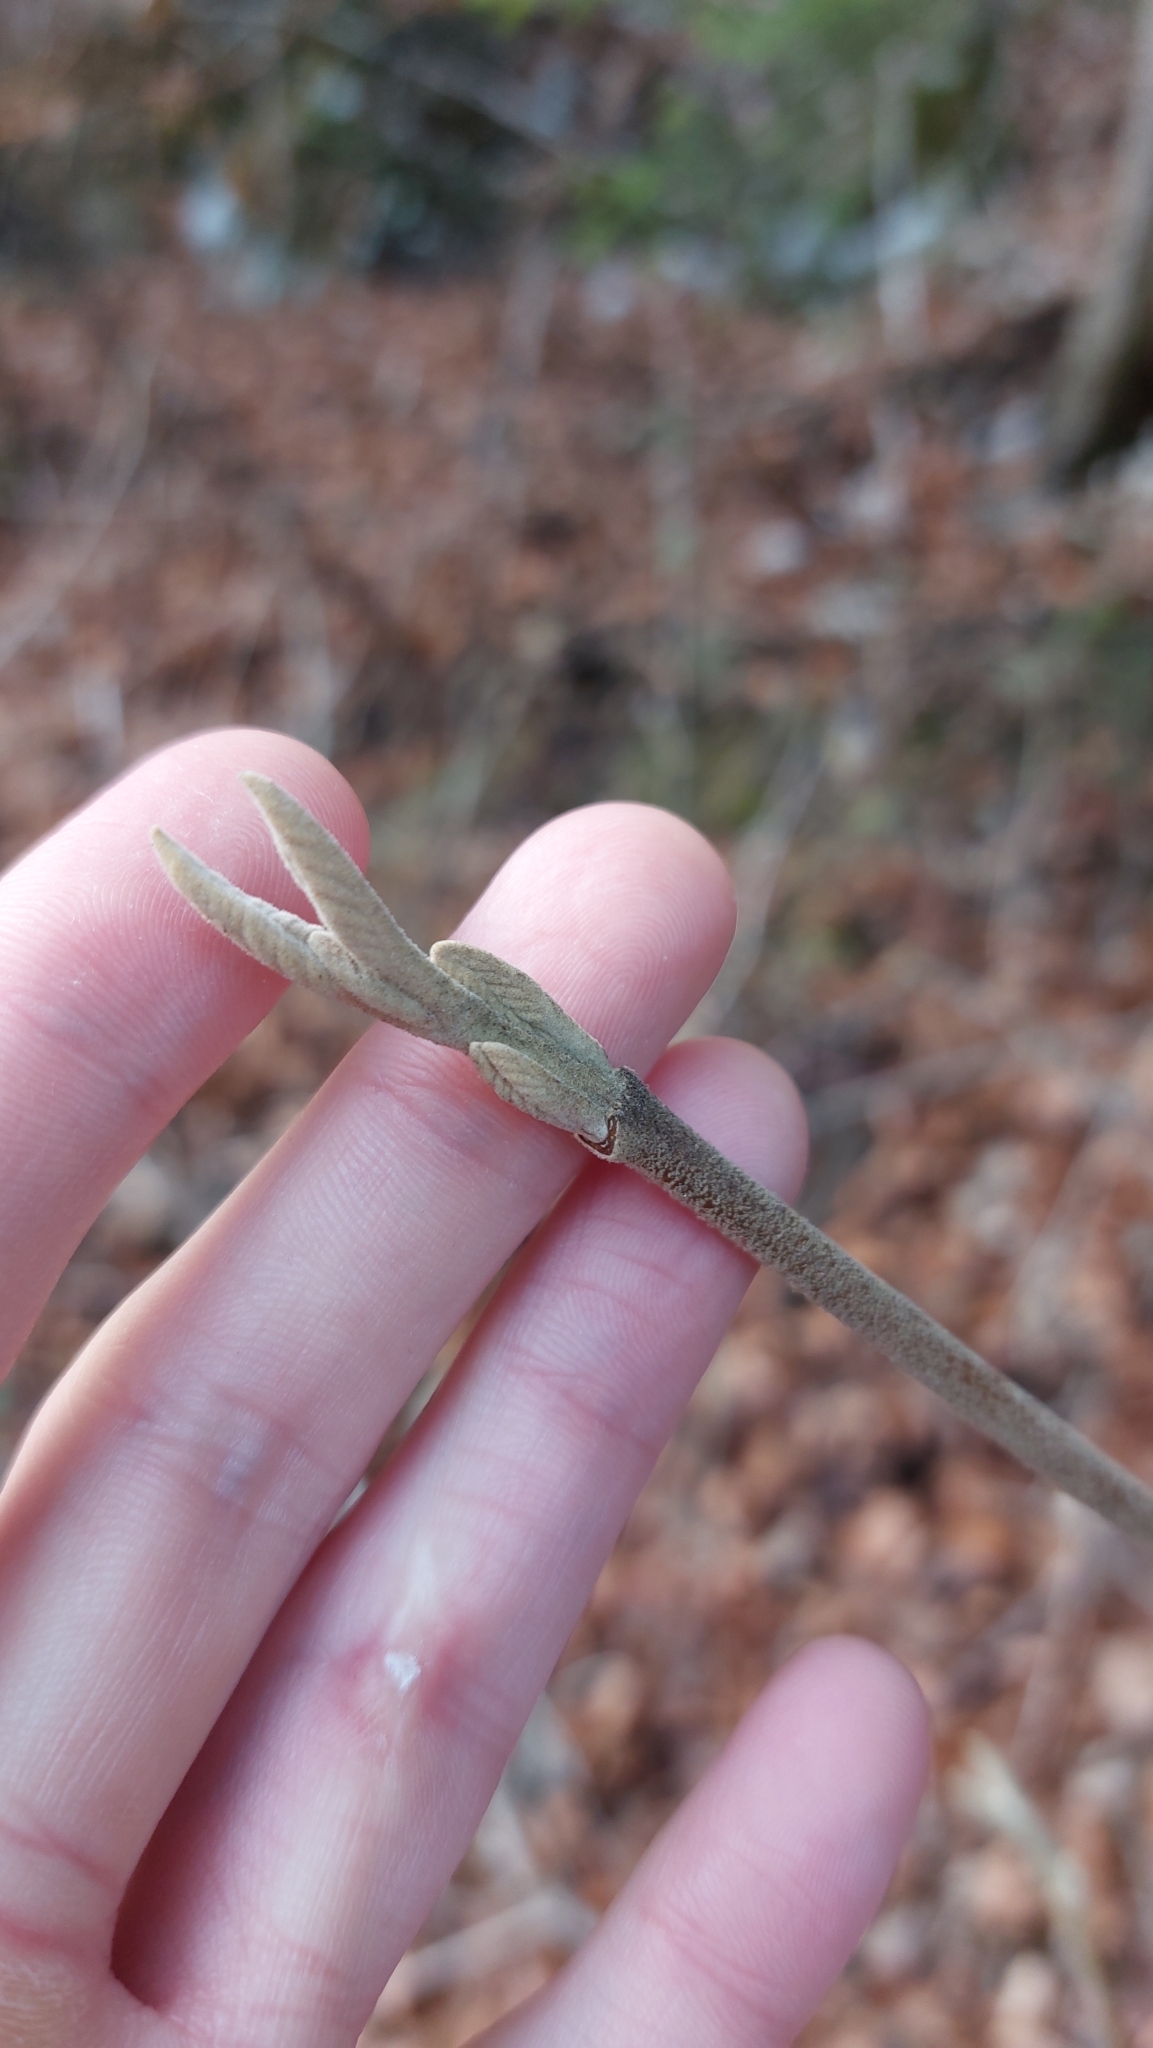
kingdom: Plantae
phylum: Tracheophyta
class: Magnoliopsida
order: Dipsacales
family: Viburnaceae
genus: Viburnum
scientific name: Viburnum lantana
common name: Wayfaring tree
